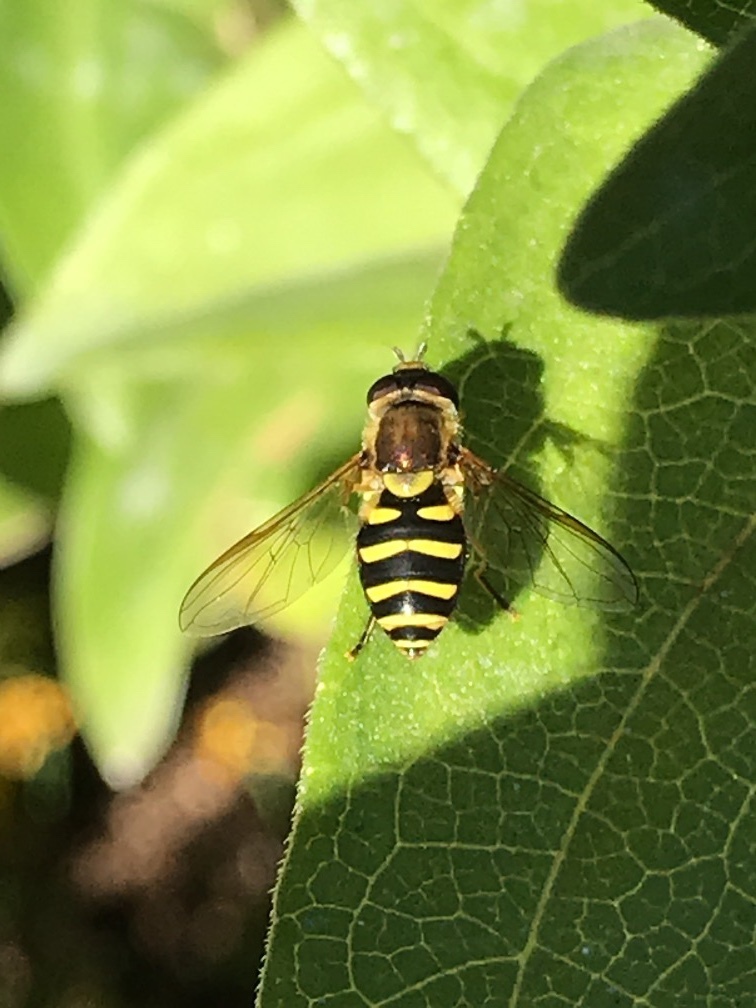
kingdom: Animalia
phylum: Arthropoda
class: Insecta
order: Diptera
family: Syrphidae
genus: Syrphus
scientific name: Syrphus opinator
